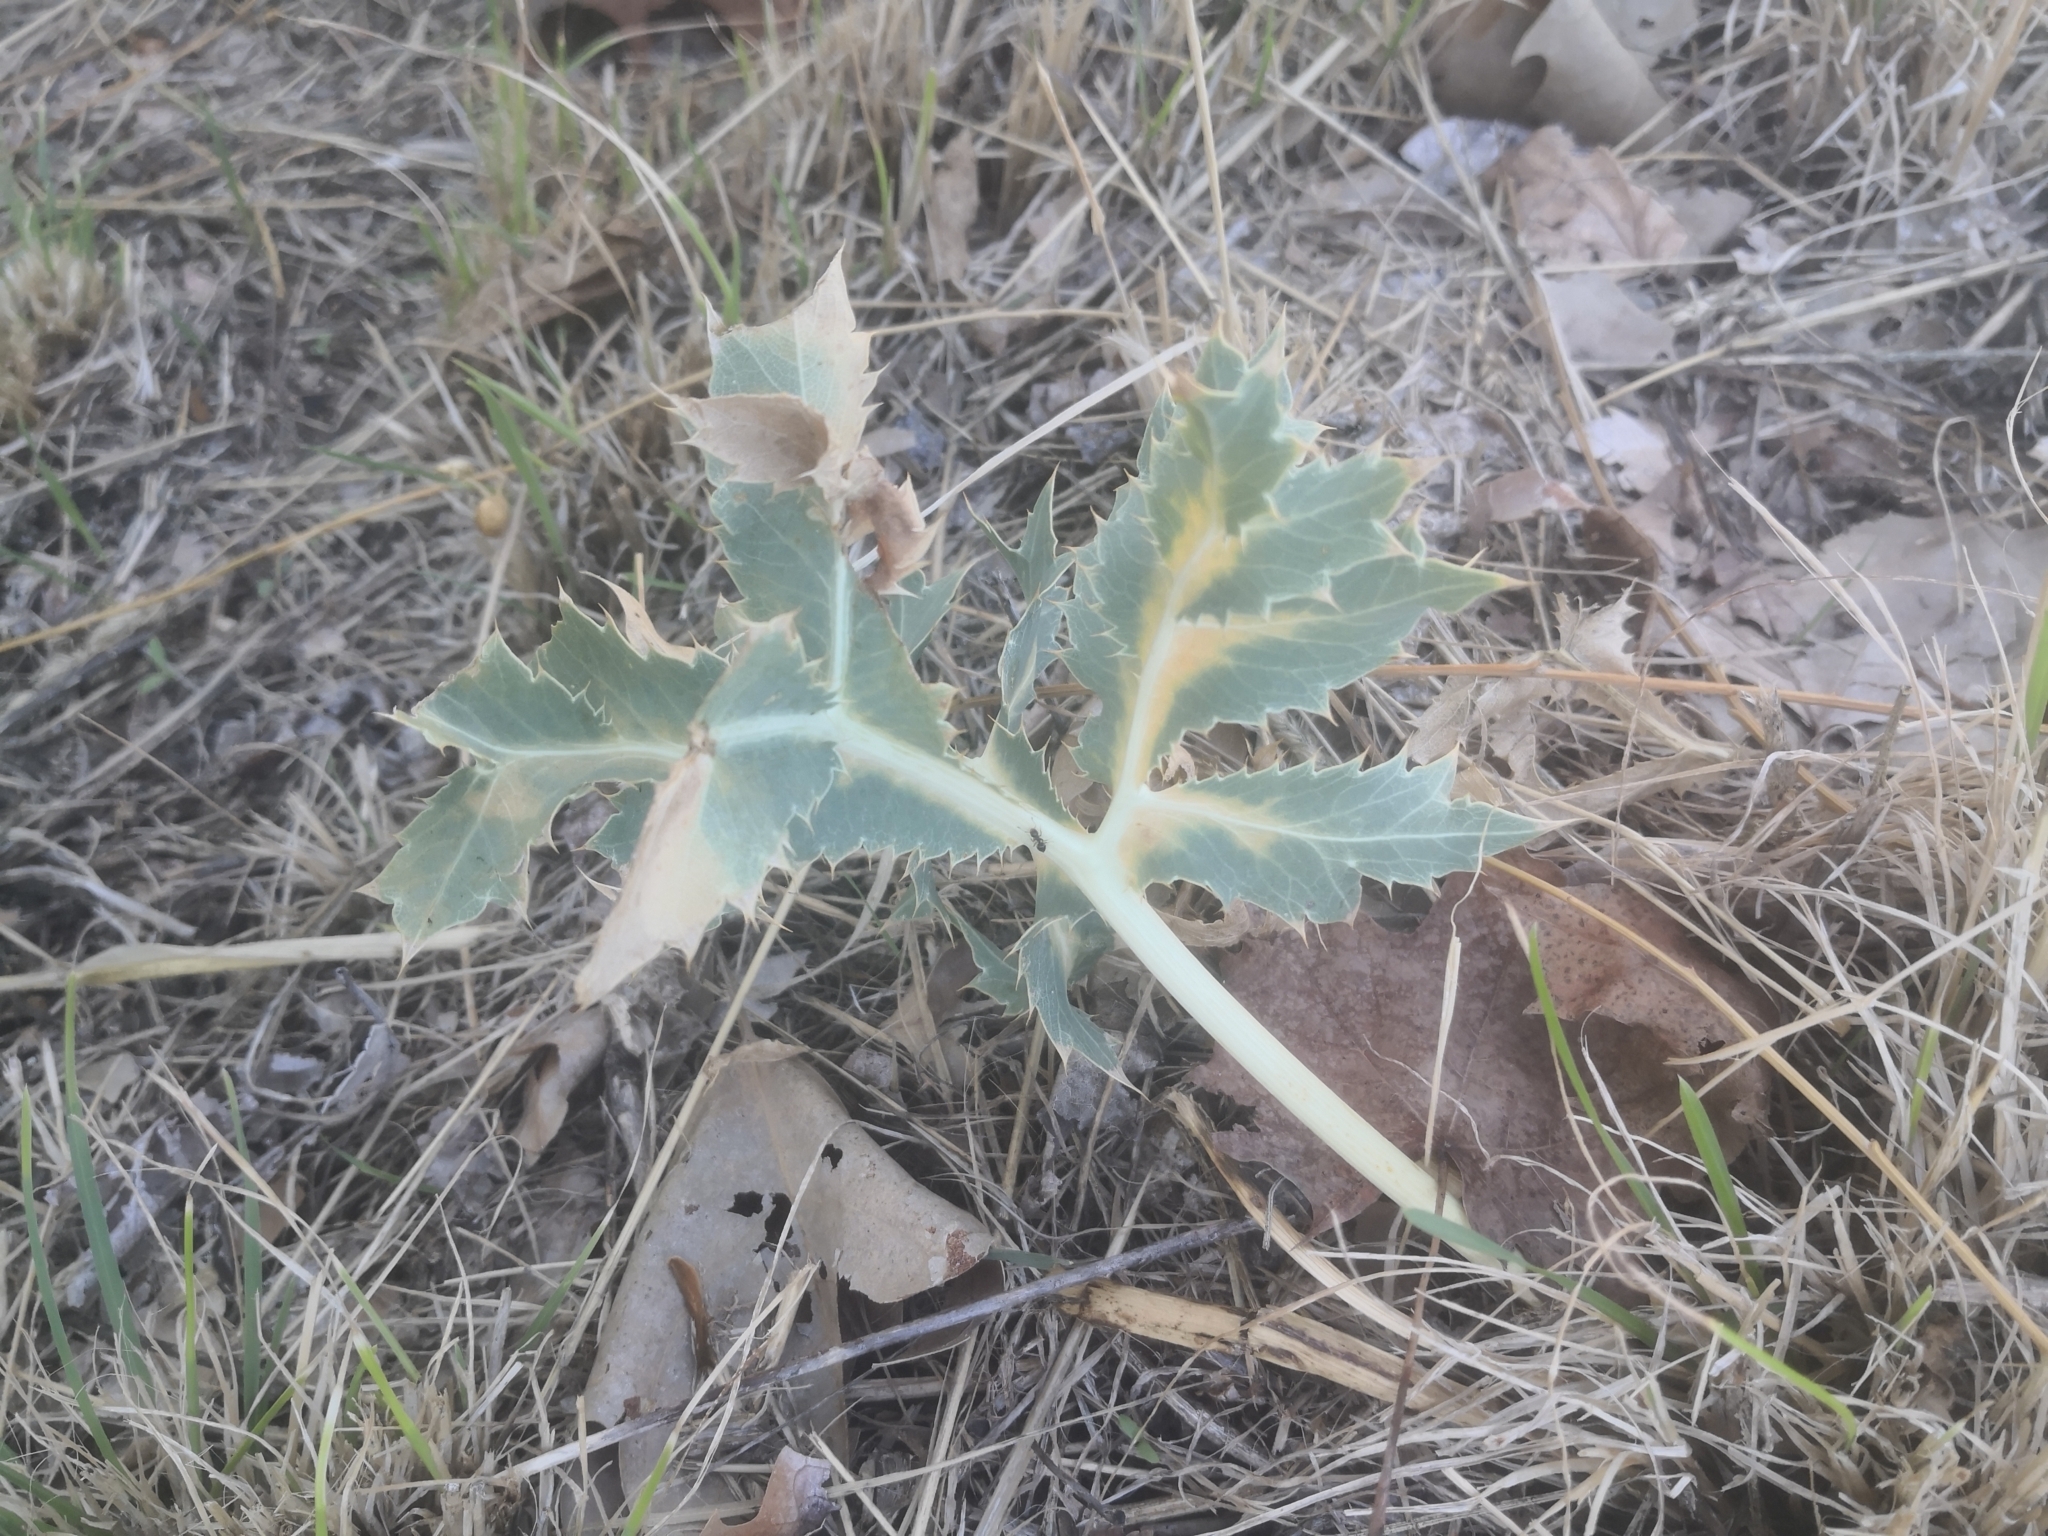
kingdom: Plantae
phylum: Tracheophyta
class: Magnoliopsida
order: Apiales
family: Apiaceae
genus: Eryngium
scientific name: Eryngium campestre
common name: Field eryngo
